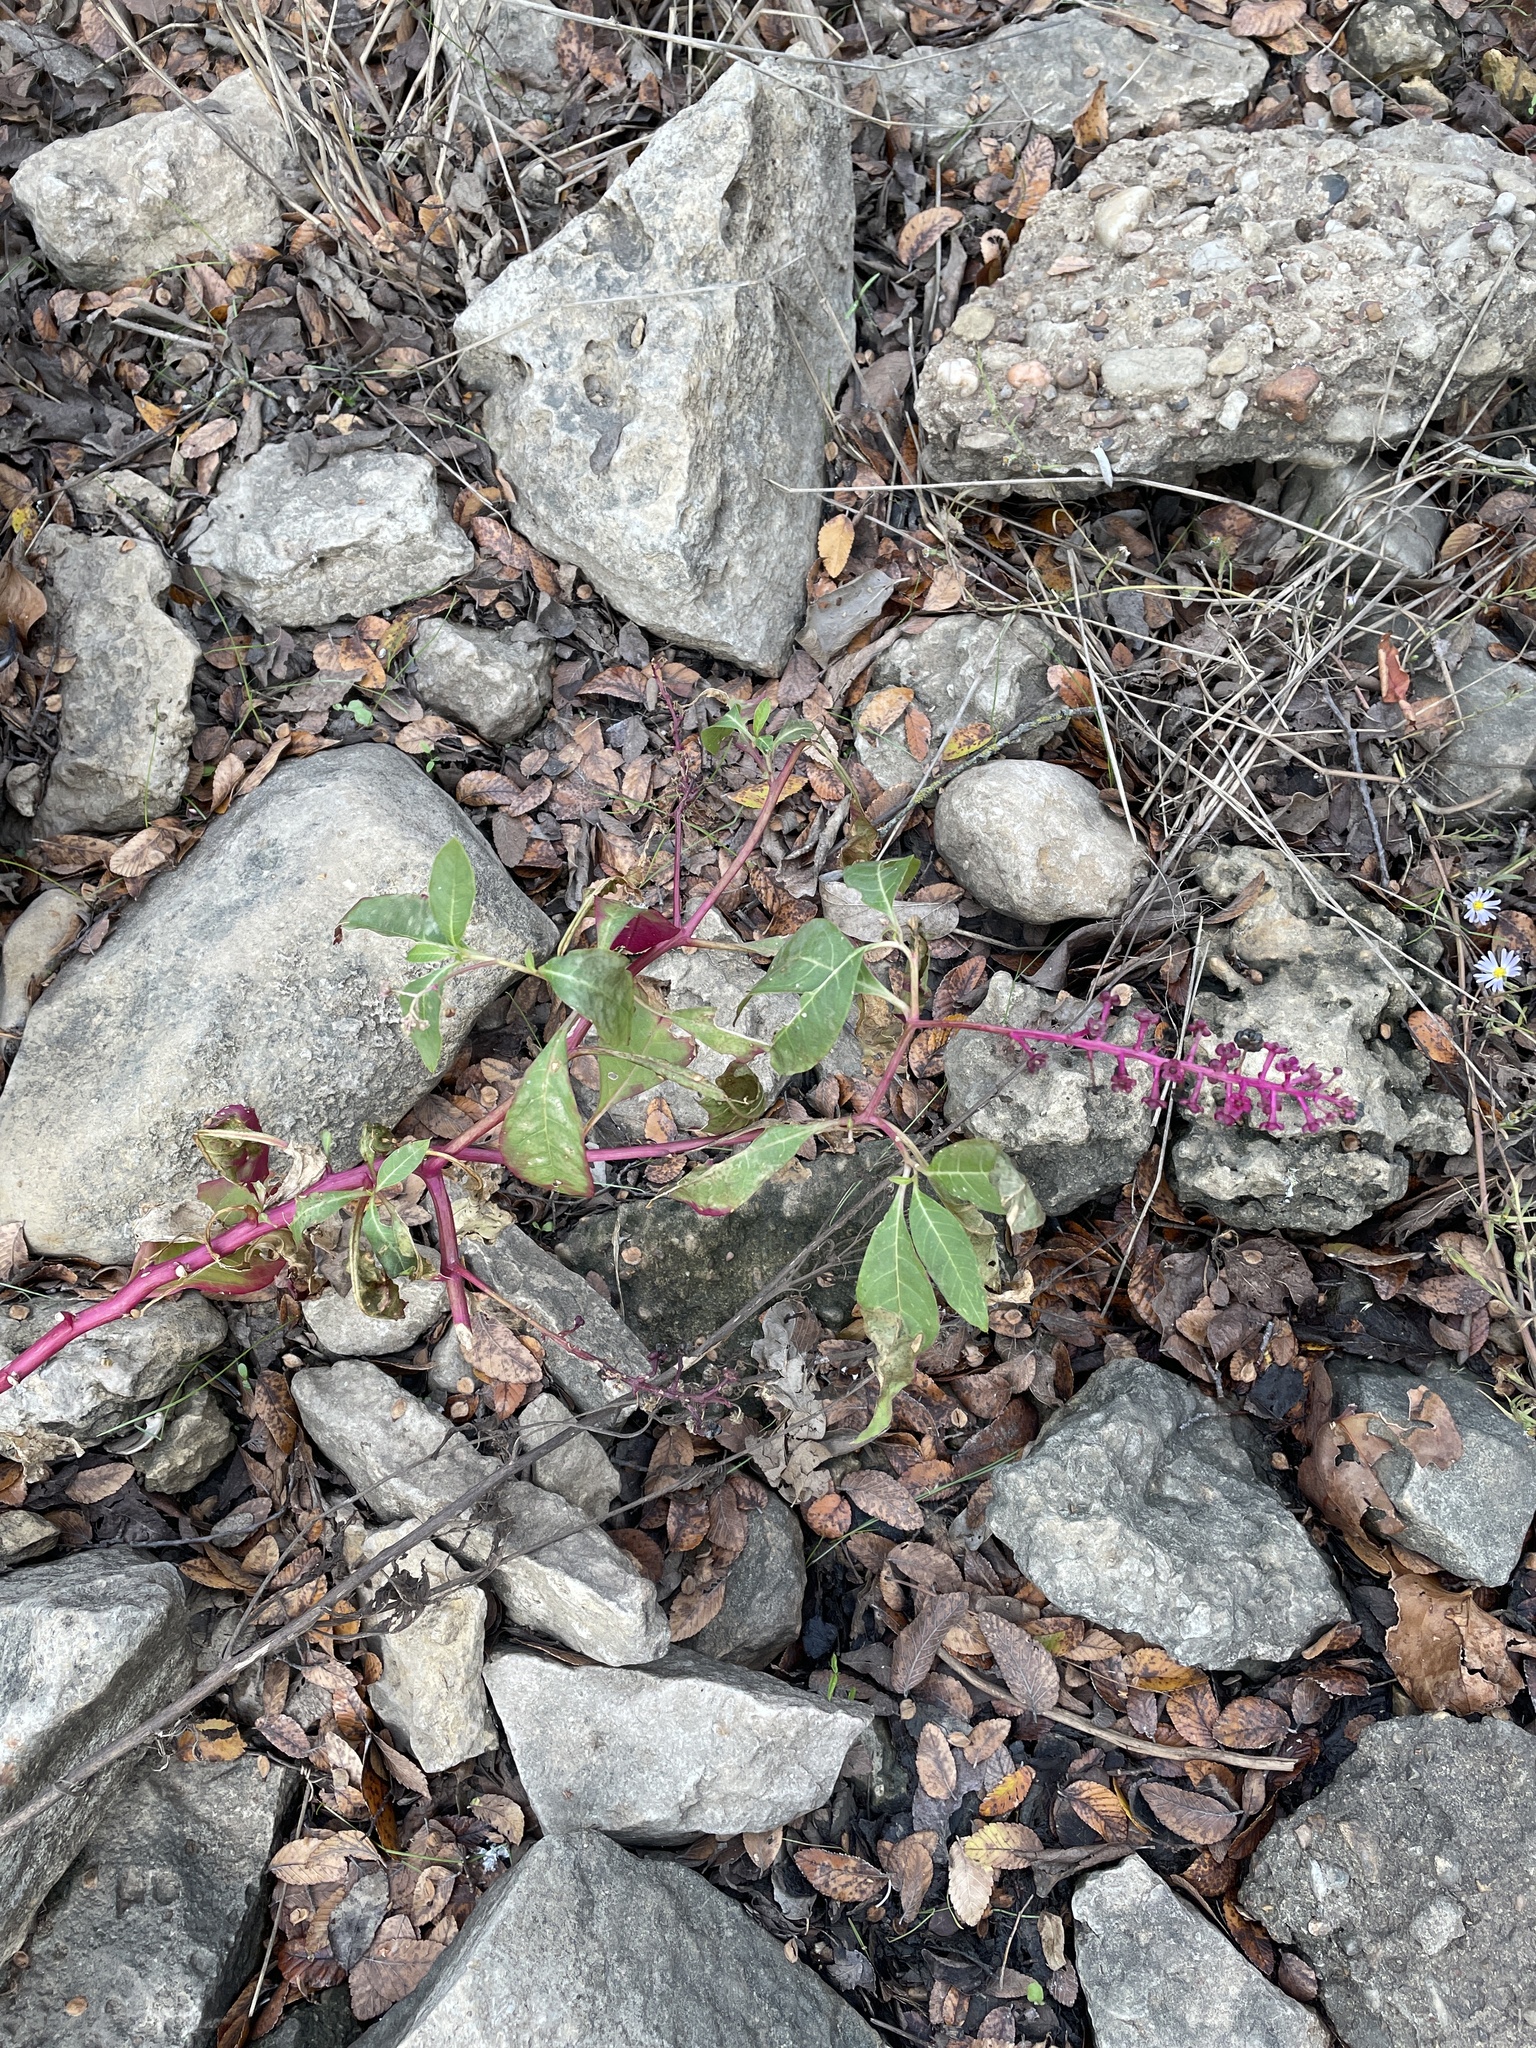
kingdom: Plantae
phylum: Tracheophyta
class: Magnoliopsida
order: Caryophyllales
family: Phytolaccaceae
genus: Phytolacca
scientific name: Phytolacca americana
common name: American pokeweed
